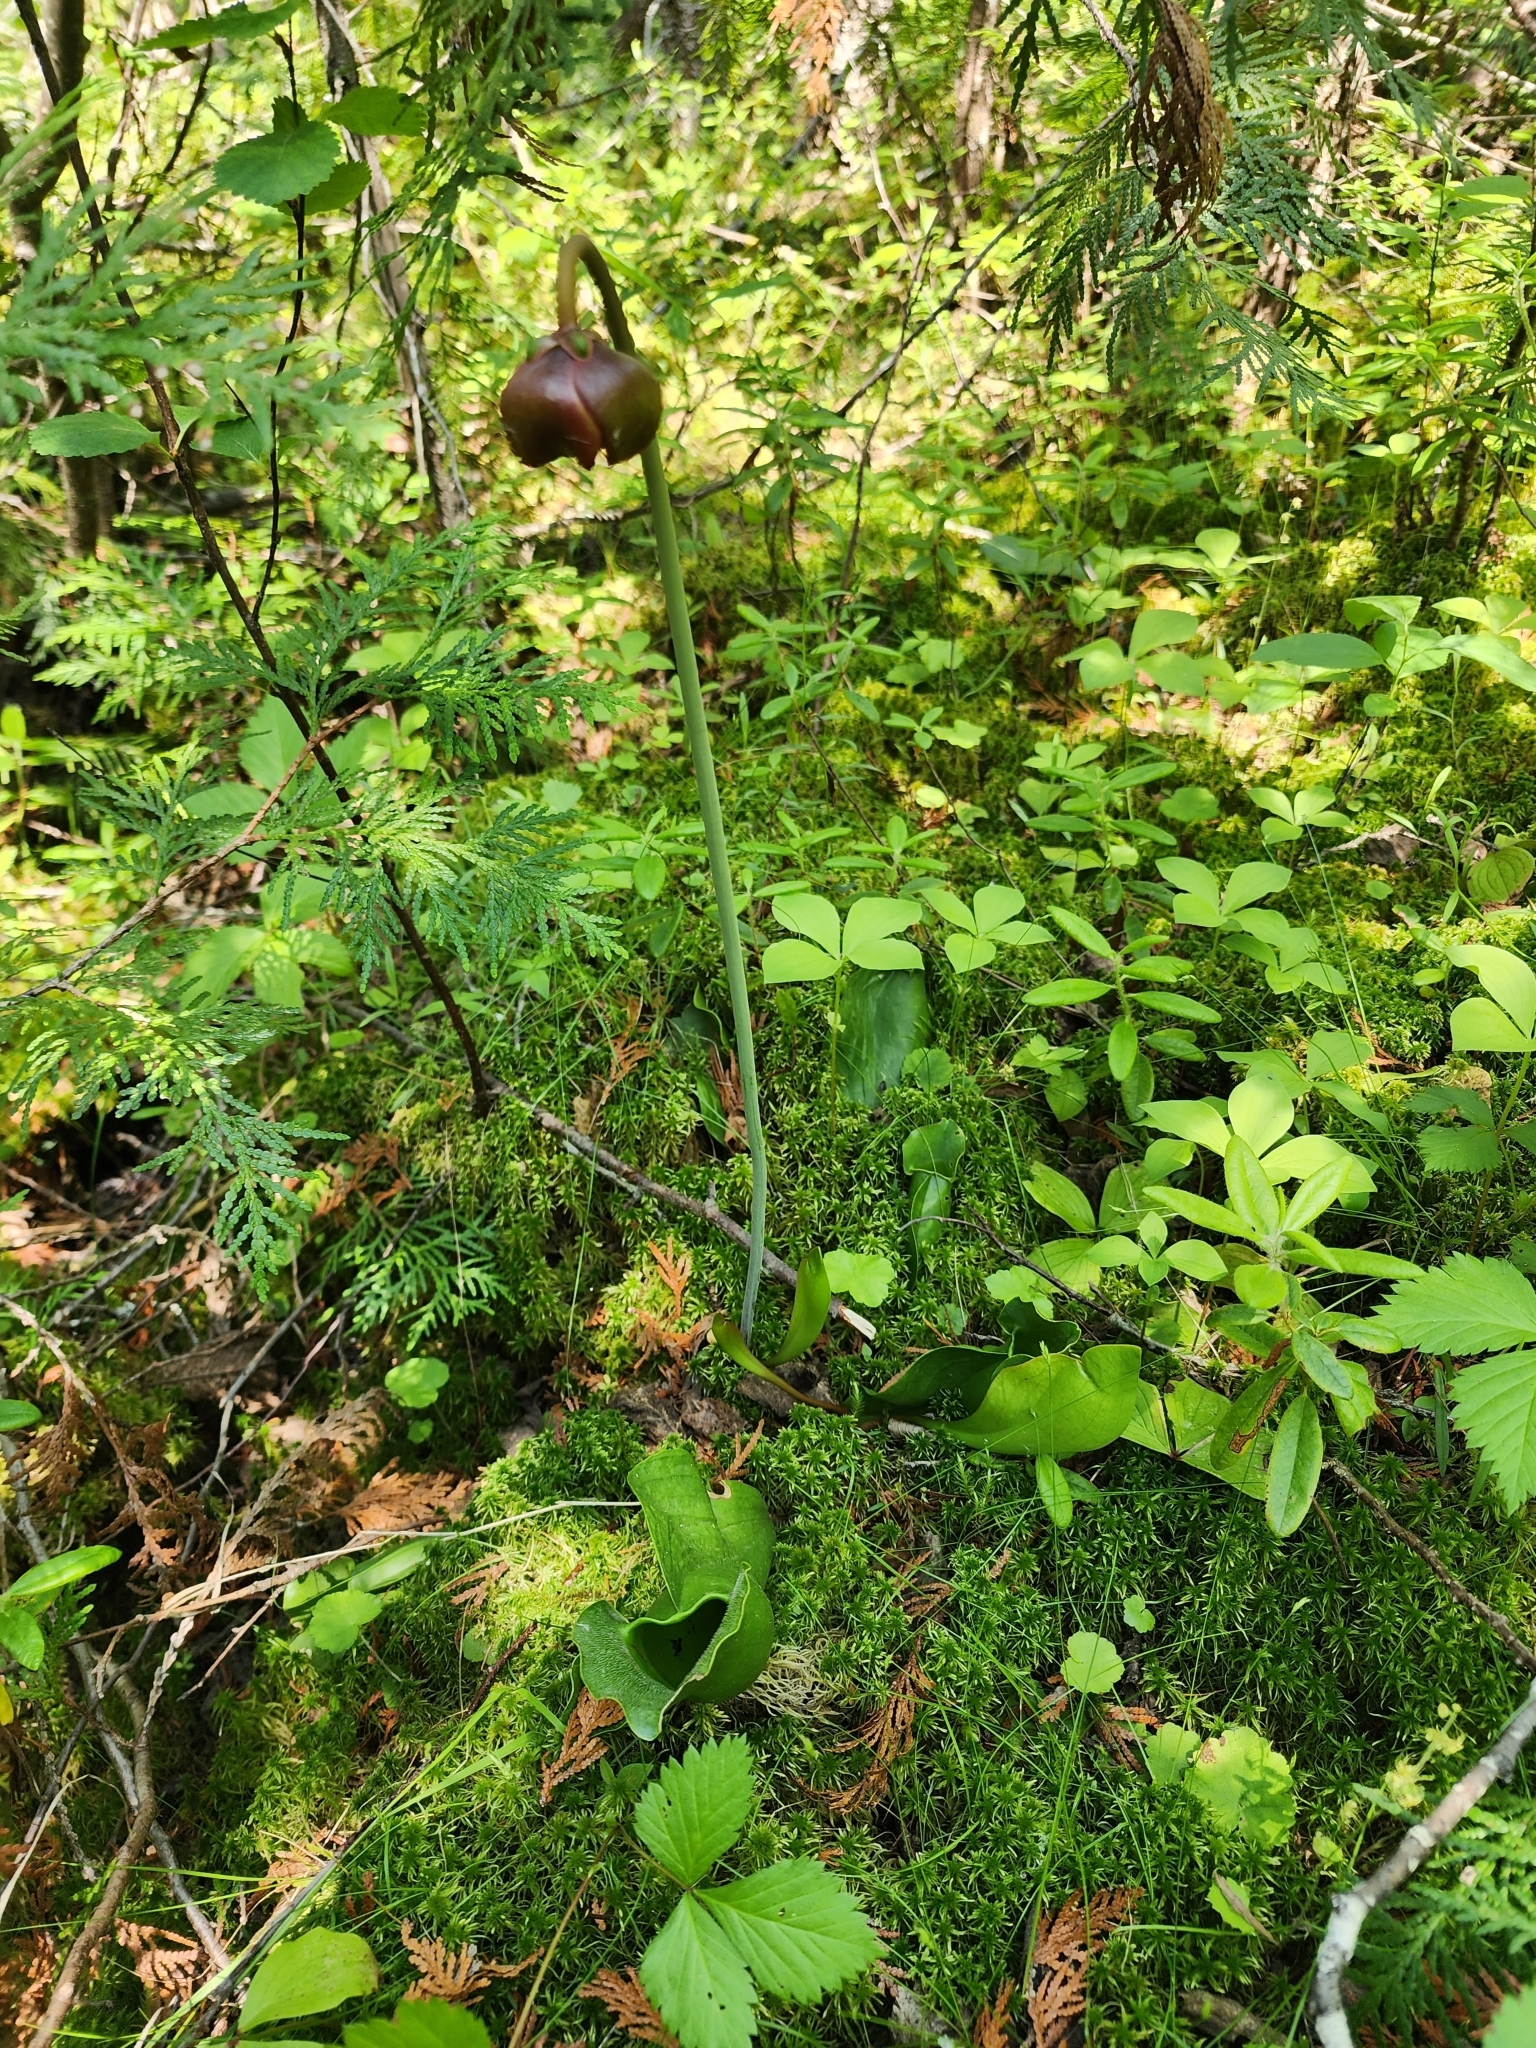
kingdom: Plantae
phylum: Tracheophyta
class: Magnoliopsida
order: Ericales
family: Sarraceniaceae
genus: Sarracenia
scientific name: Sarracenia purpurea
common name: Pitcherplant
